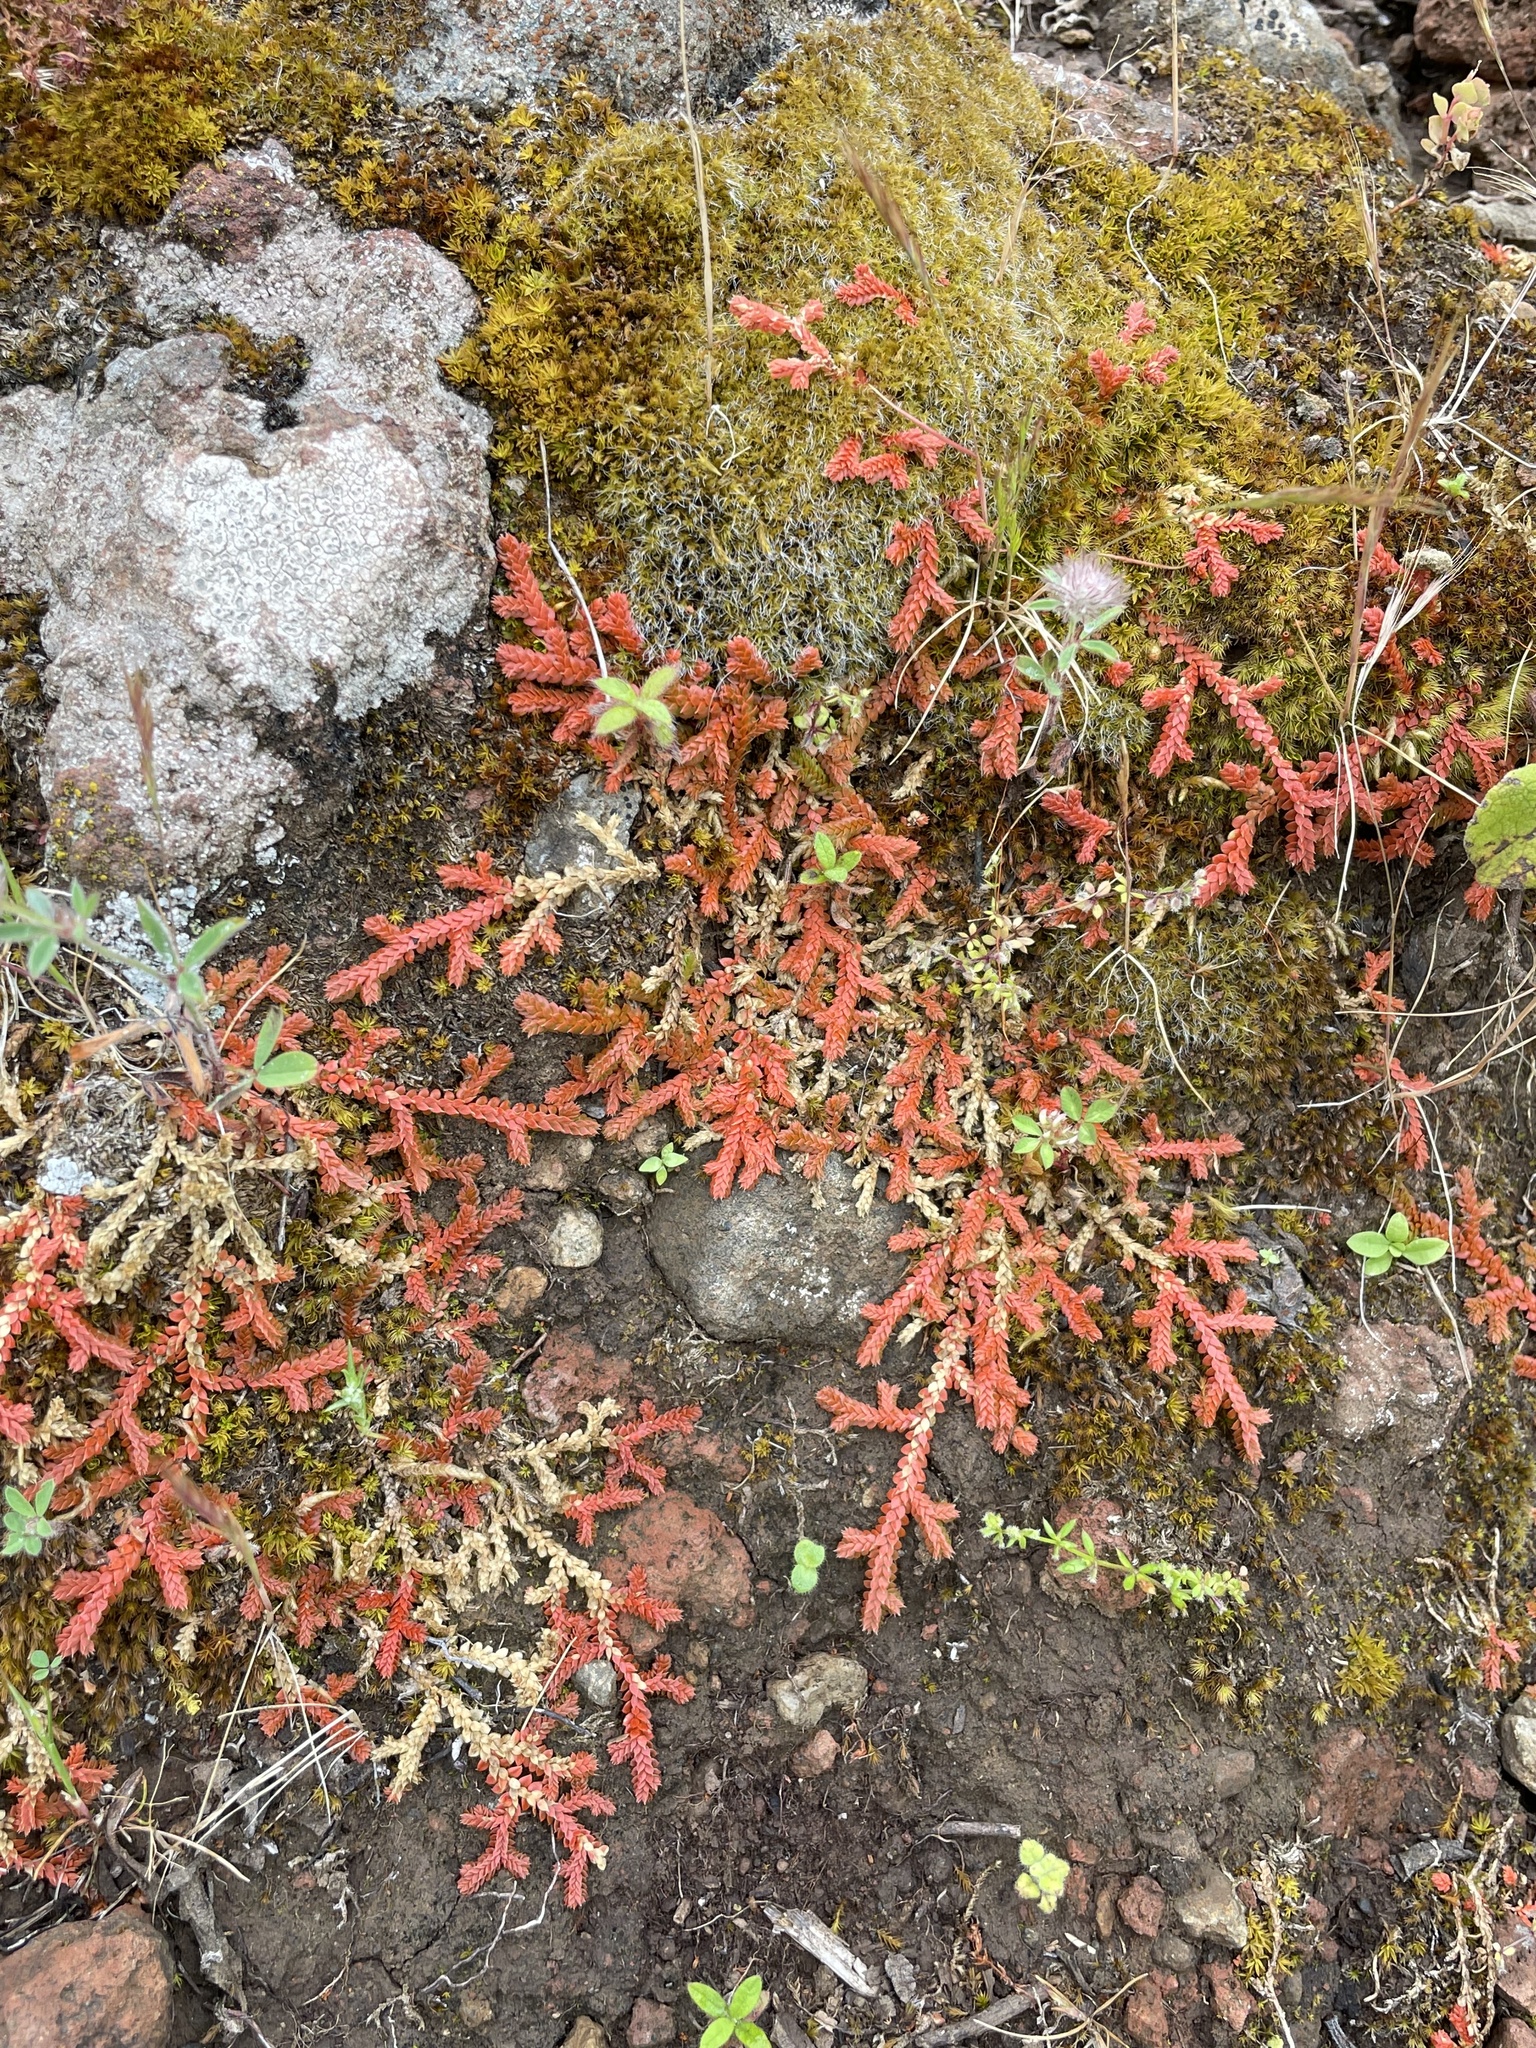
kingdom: Plantae
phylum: Tracheophyta
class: Lycopodiopsida
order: Selaginellales
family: Selaginellaceae
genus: Selaginella
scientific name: Selaginella denticulata
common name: Toothed-leaved clubmoss
